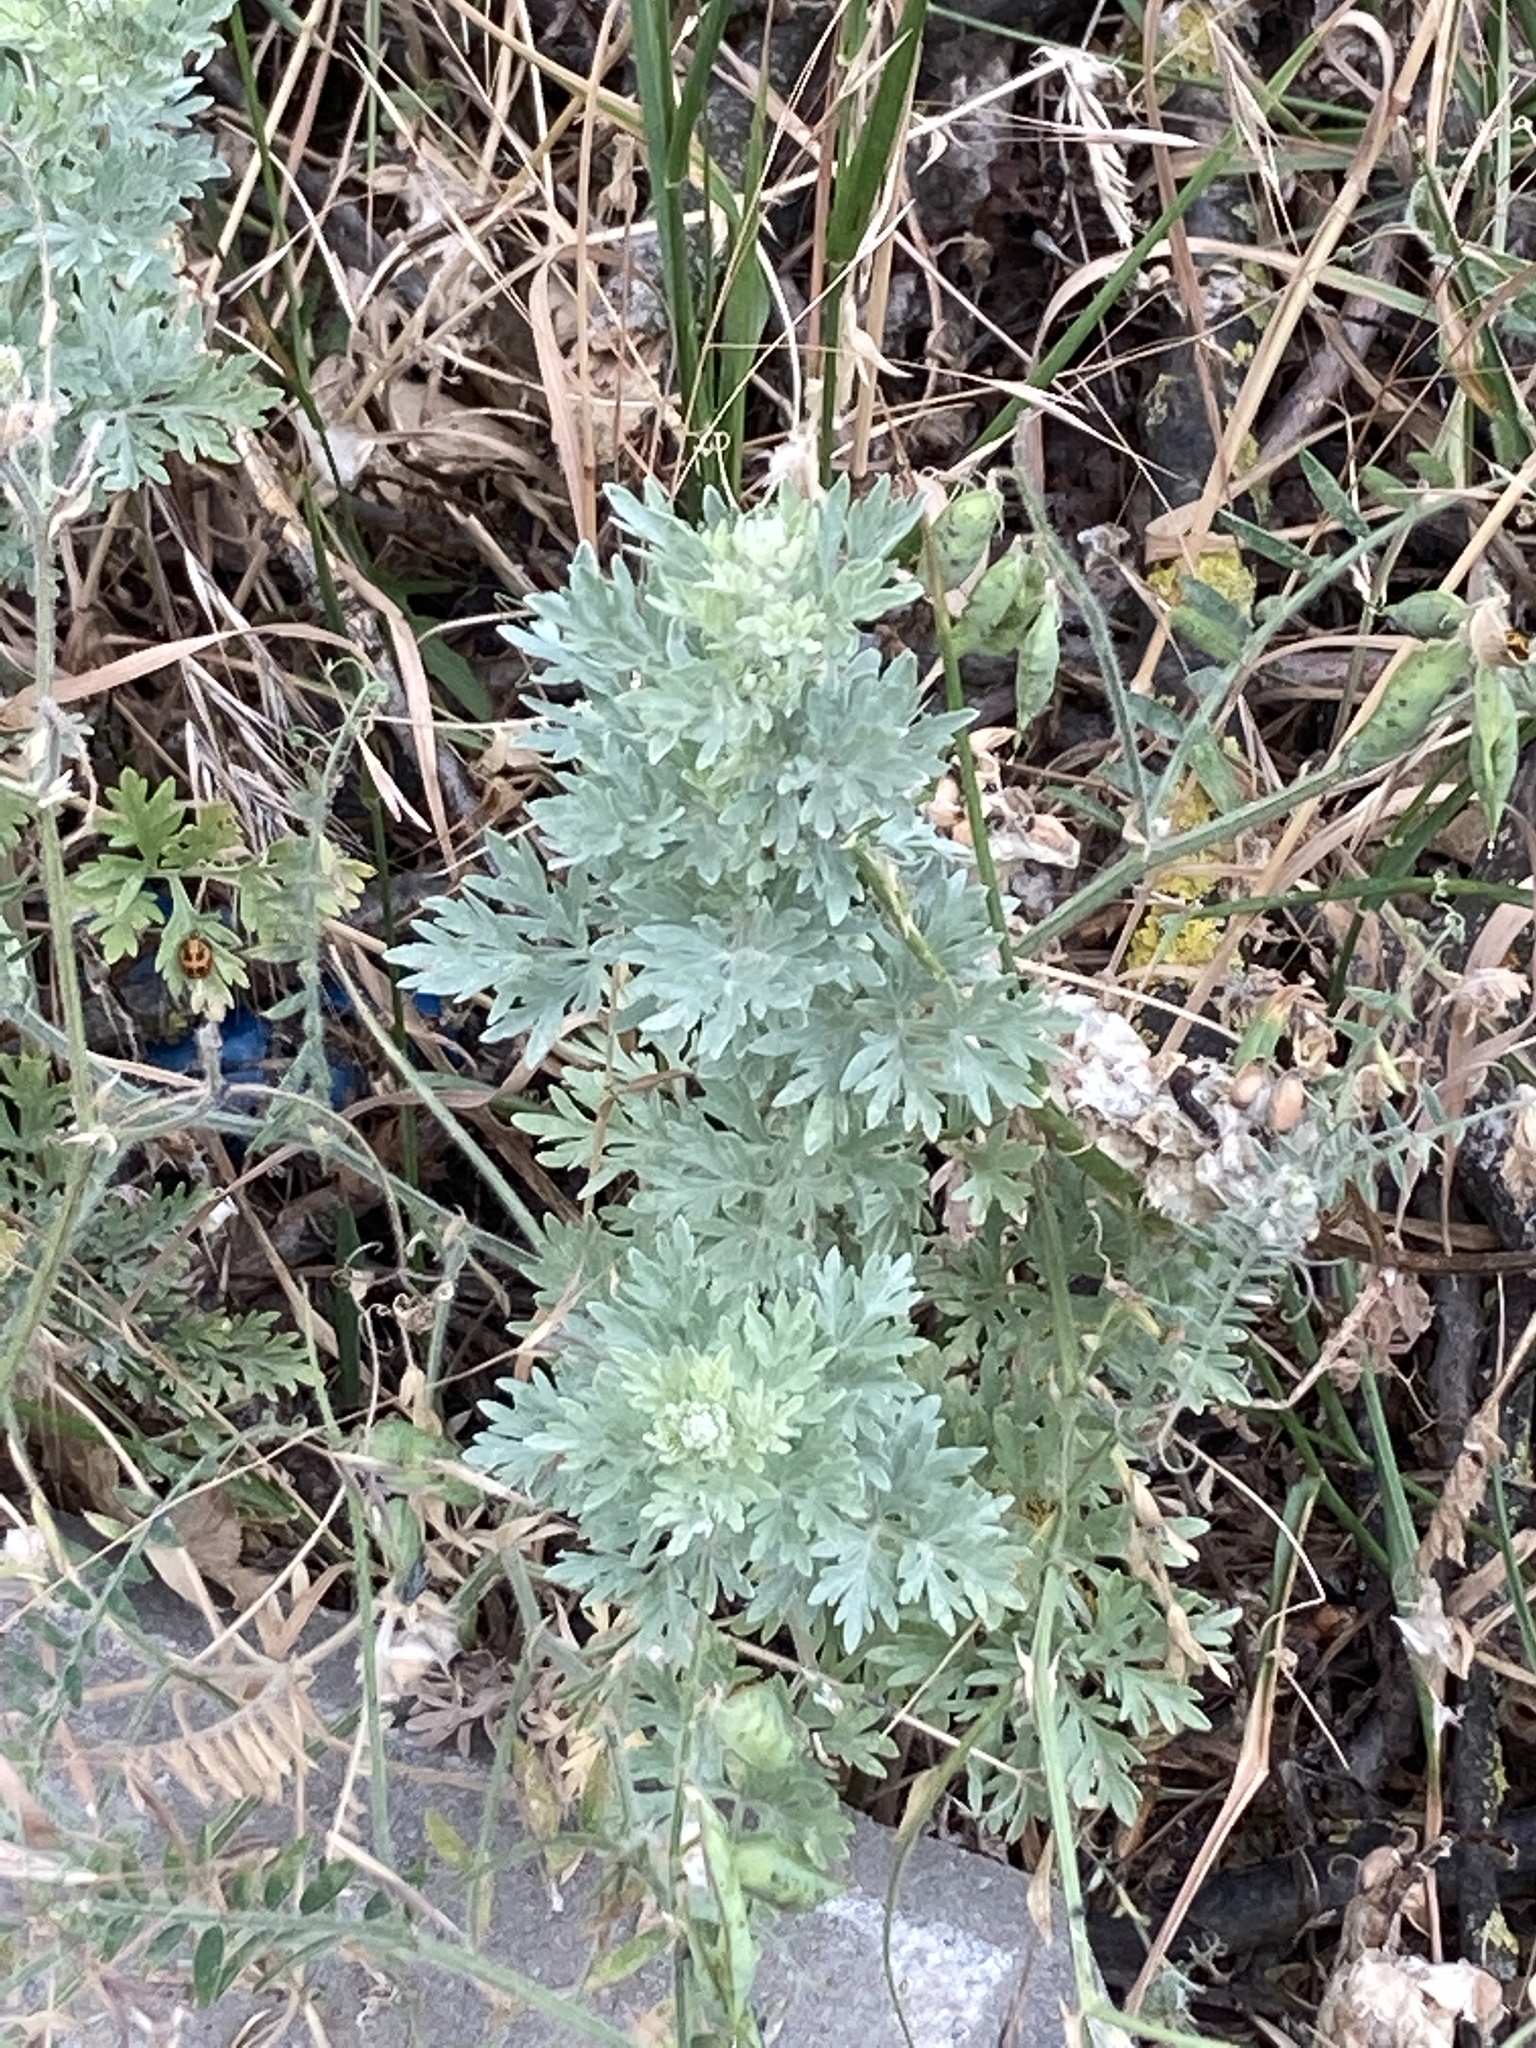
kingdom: Plantae
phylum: Tracheophyta
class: Magnoliopsida
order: Asterales
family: Asteraceae
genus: Artemisia
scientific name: Artemisia absinthium
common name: Wormwood
